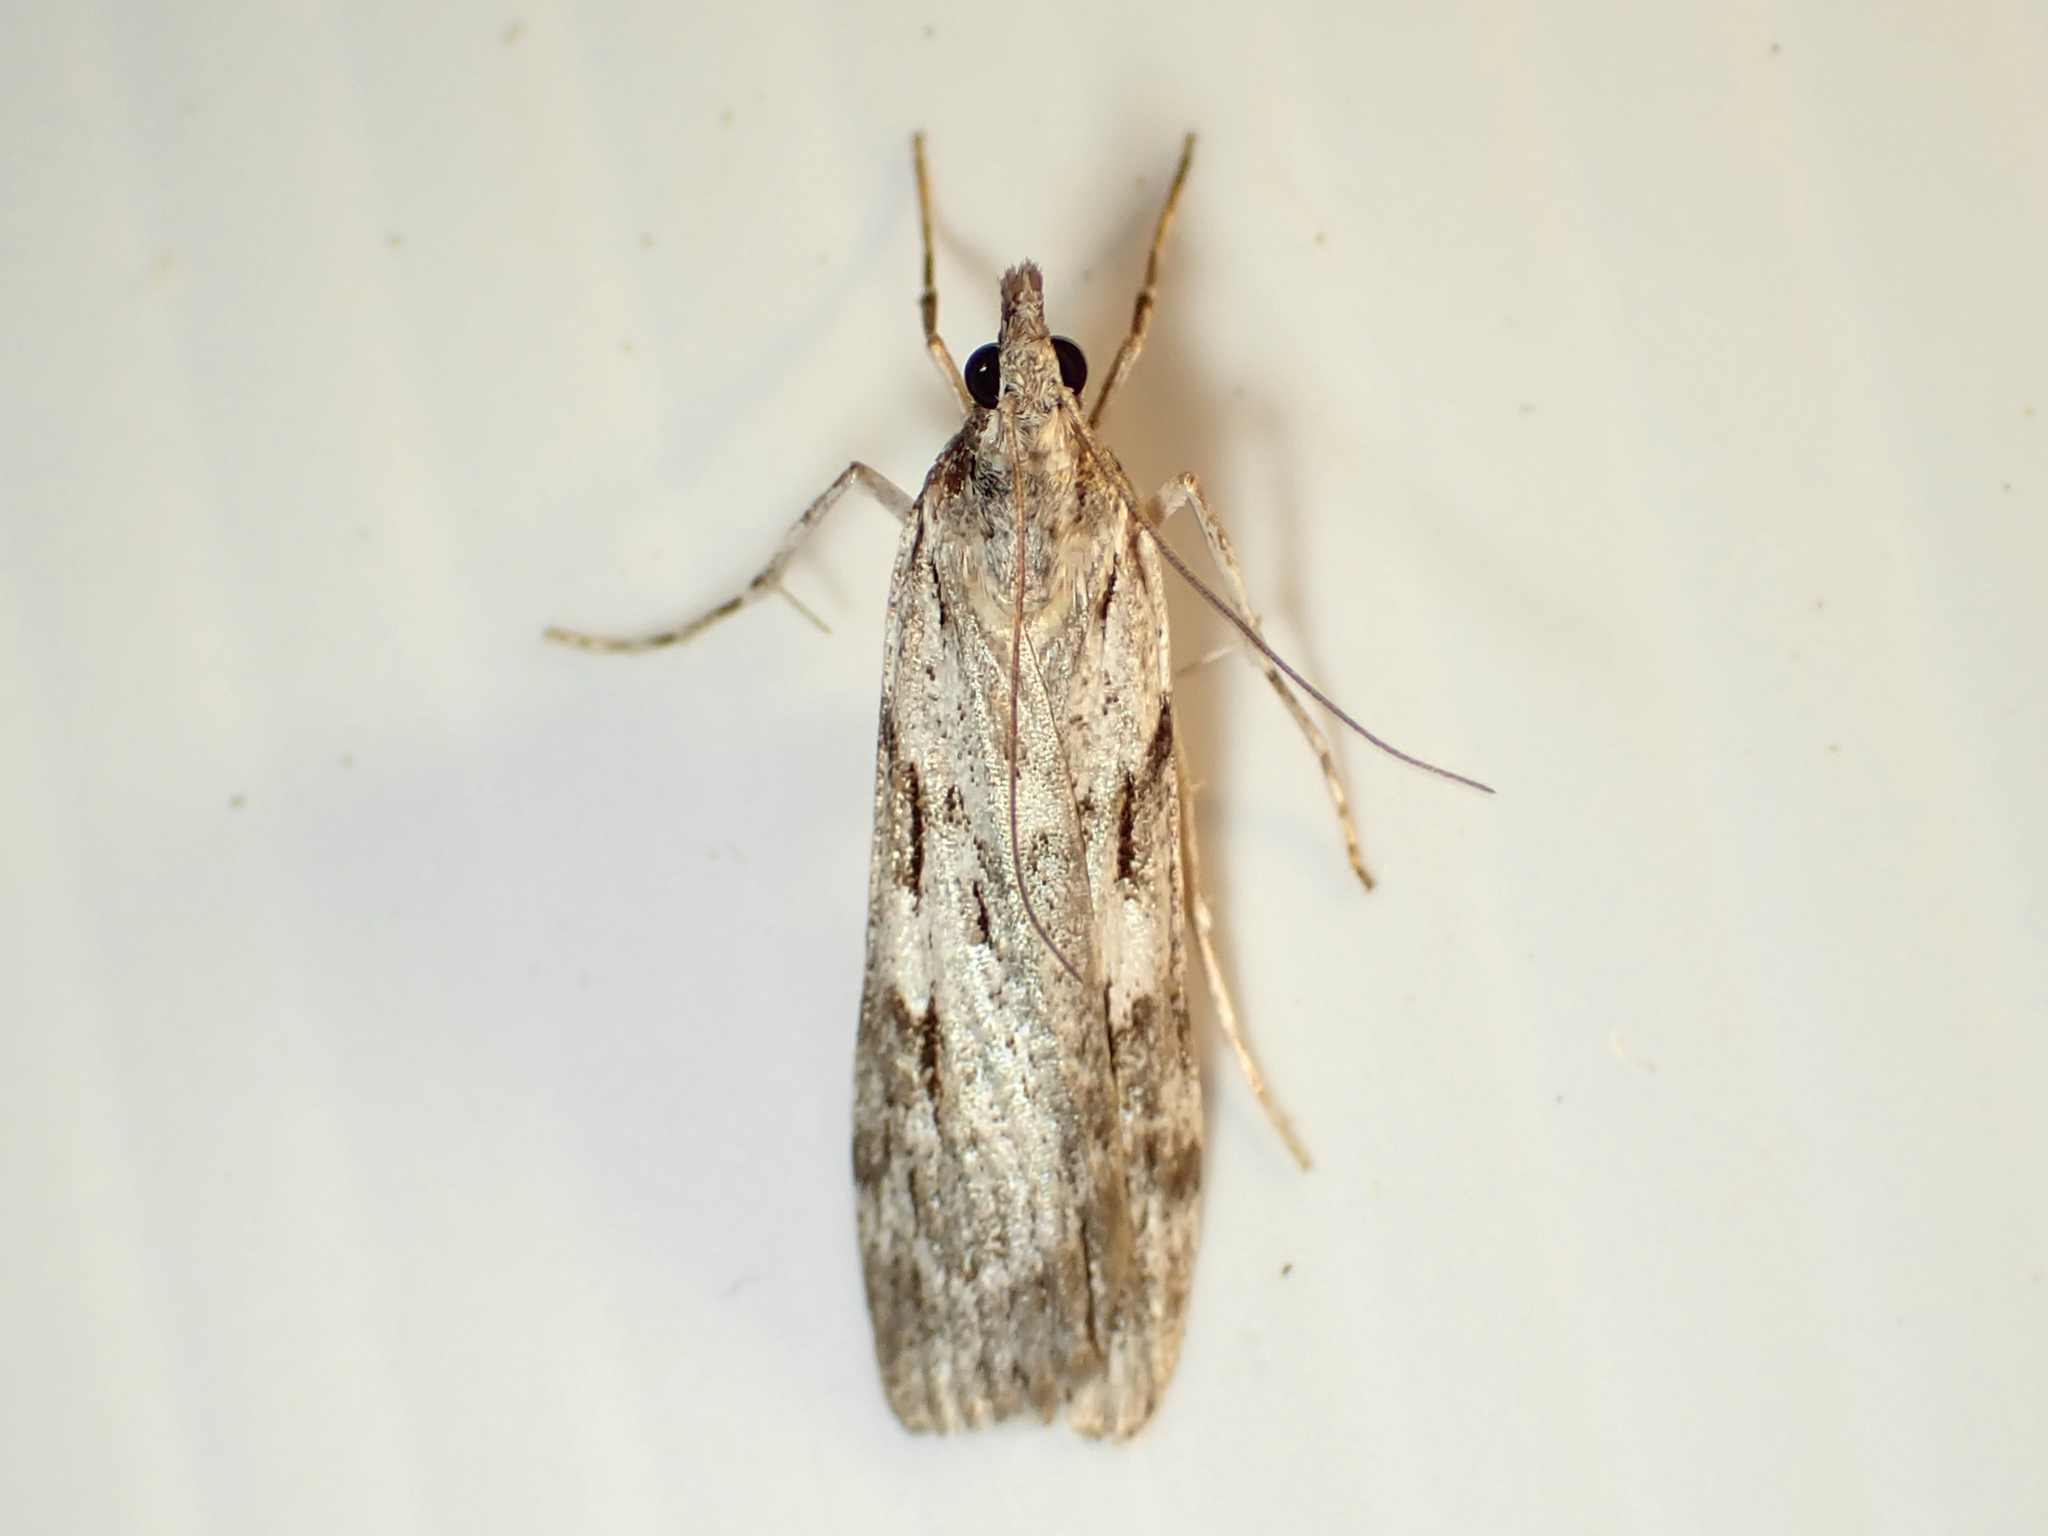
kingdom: Animalia
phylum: Arthropoda
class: Insecta
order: Lepidoptera
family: Crambidae
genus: Scoparia
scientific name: Scoparia halopis
